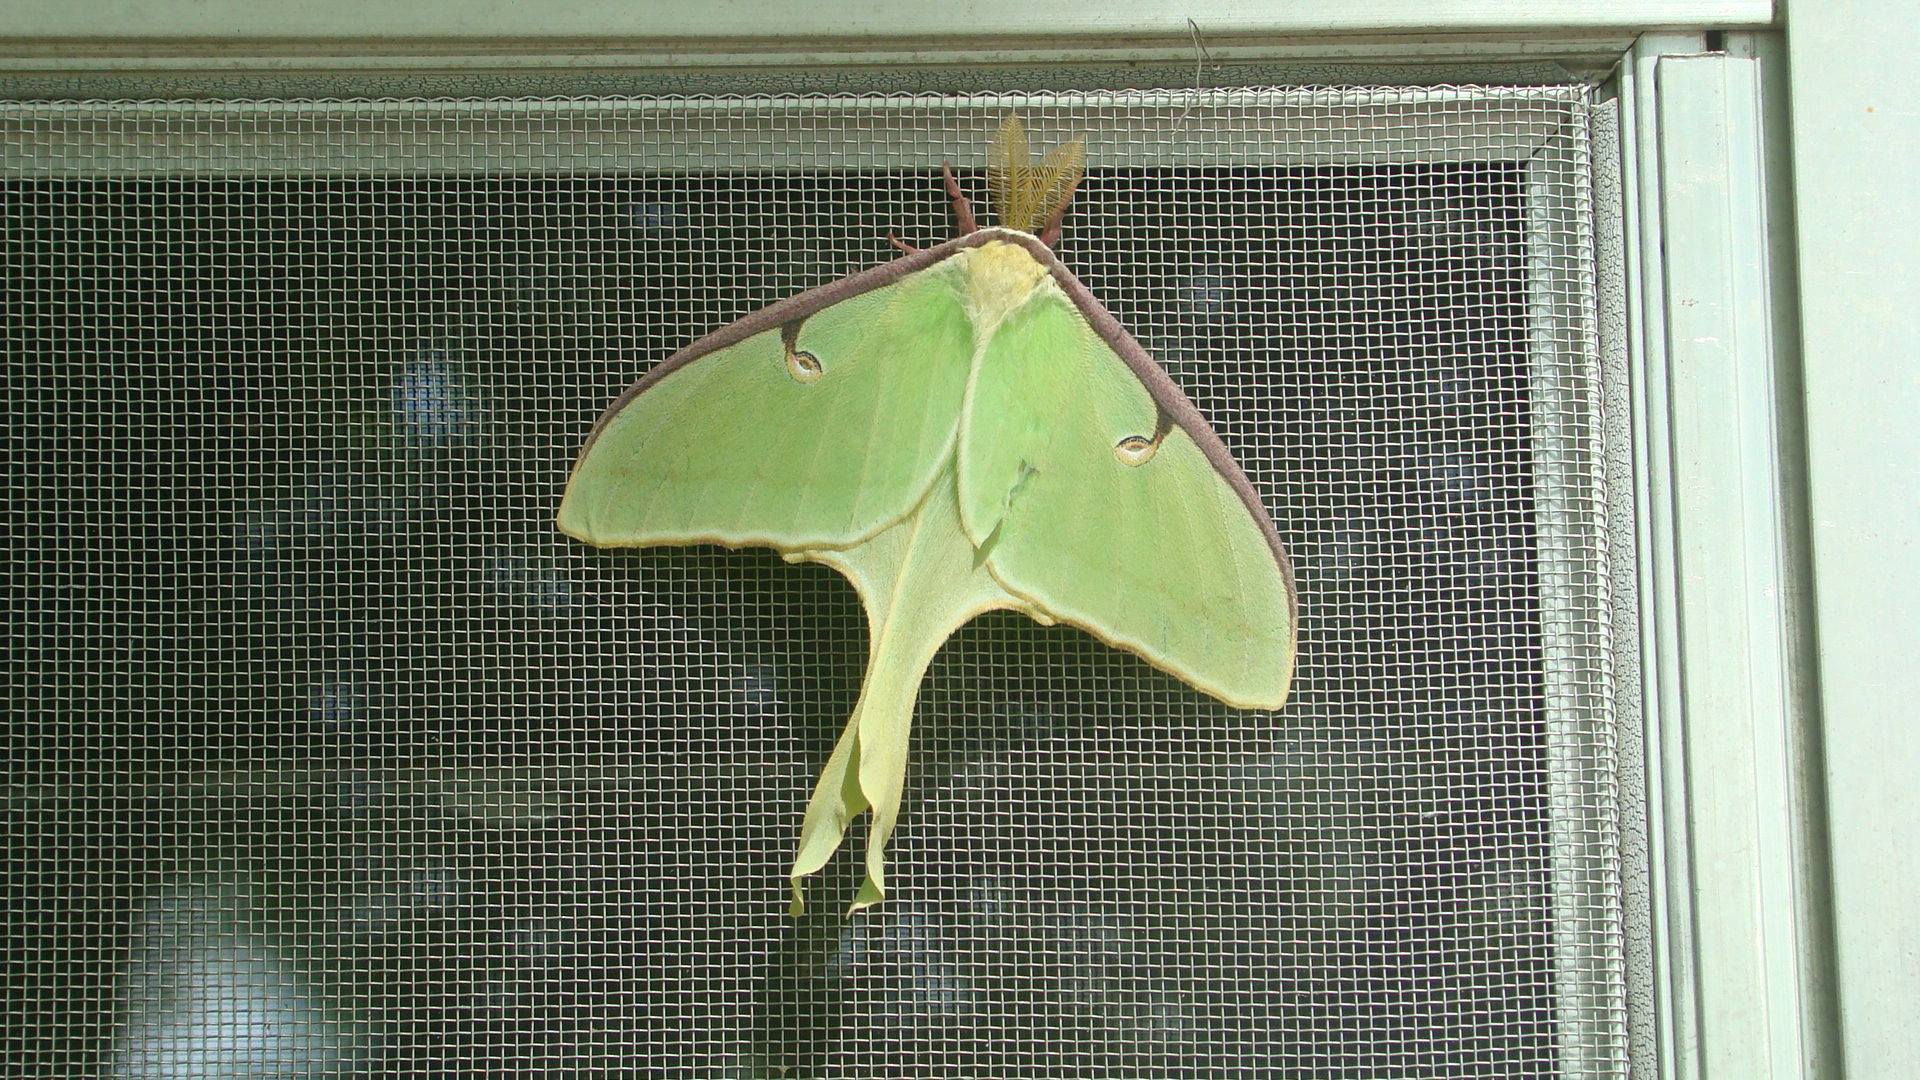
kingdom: Animalia
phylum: Arthropoda
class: Insecta
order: Lepidoptera
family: Saturniidae
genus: Actias
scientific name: Actias luna
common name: Luna moth
